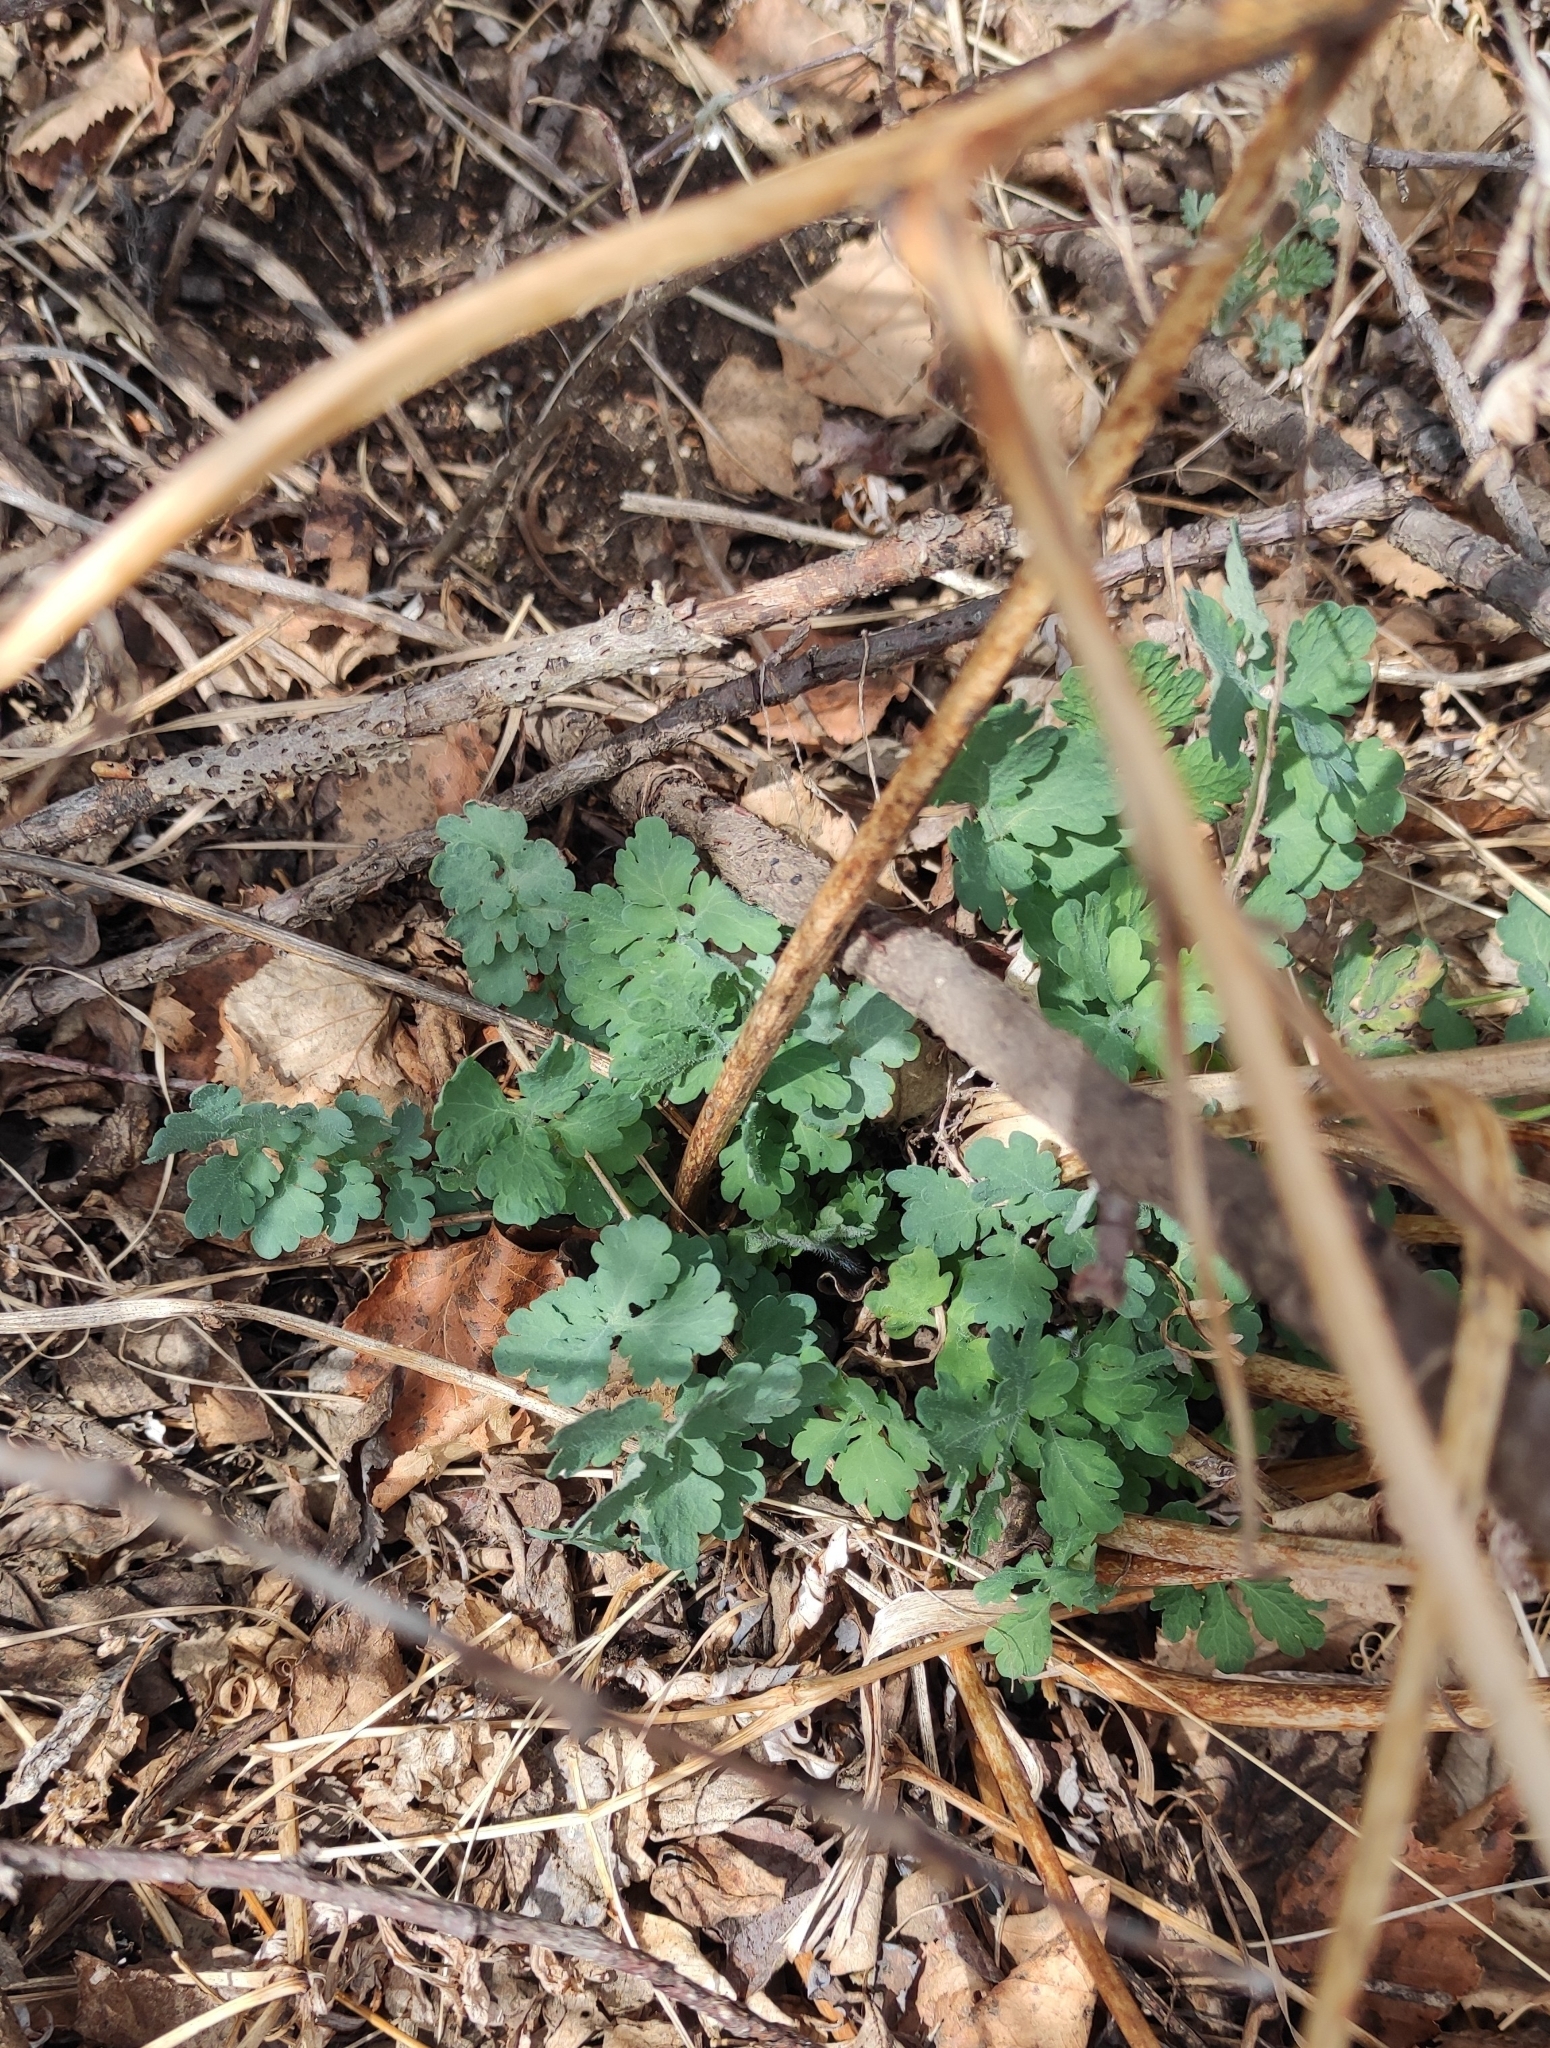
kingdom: Plantae
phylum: Tracheophyta
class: Magnoliopsida
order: Ranunculales
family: Papaveraceae
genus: Chelidonium
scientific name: Chelidonium majus
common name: Greater celandine
